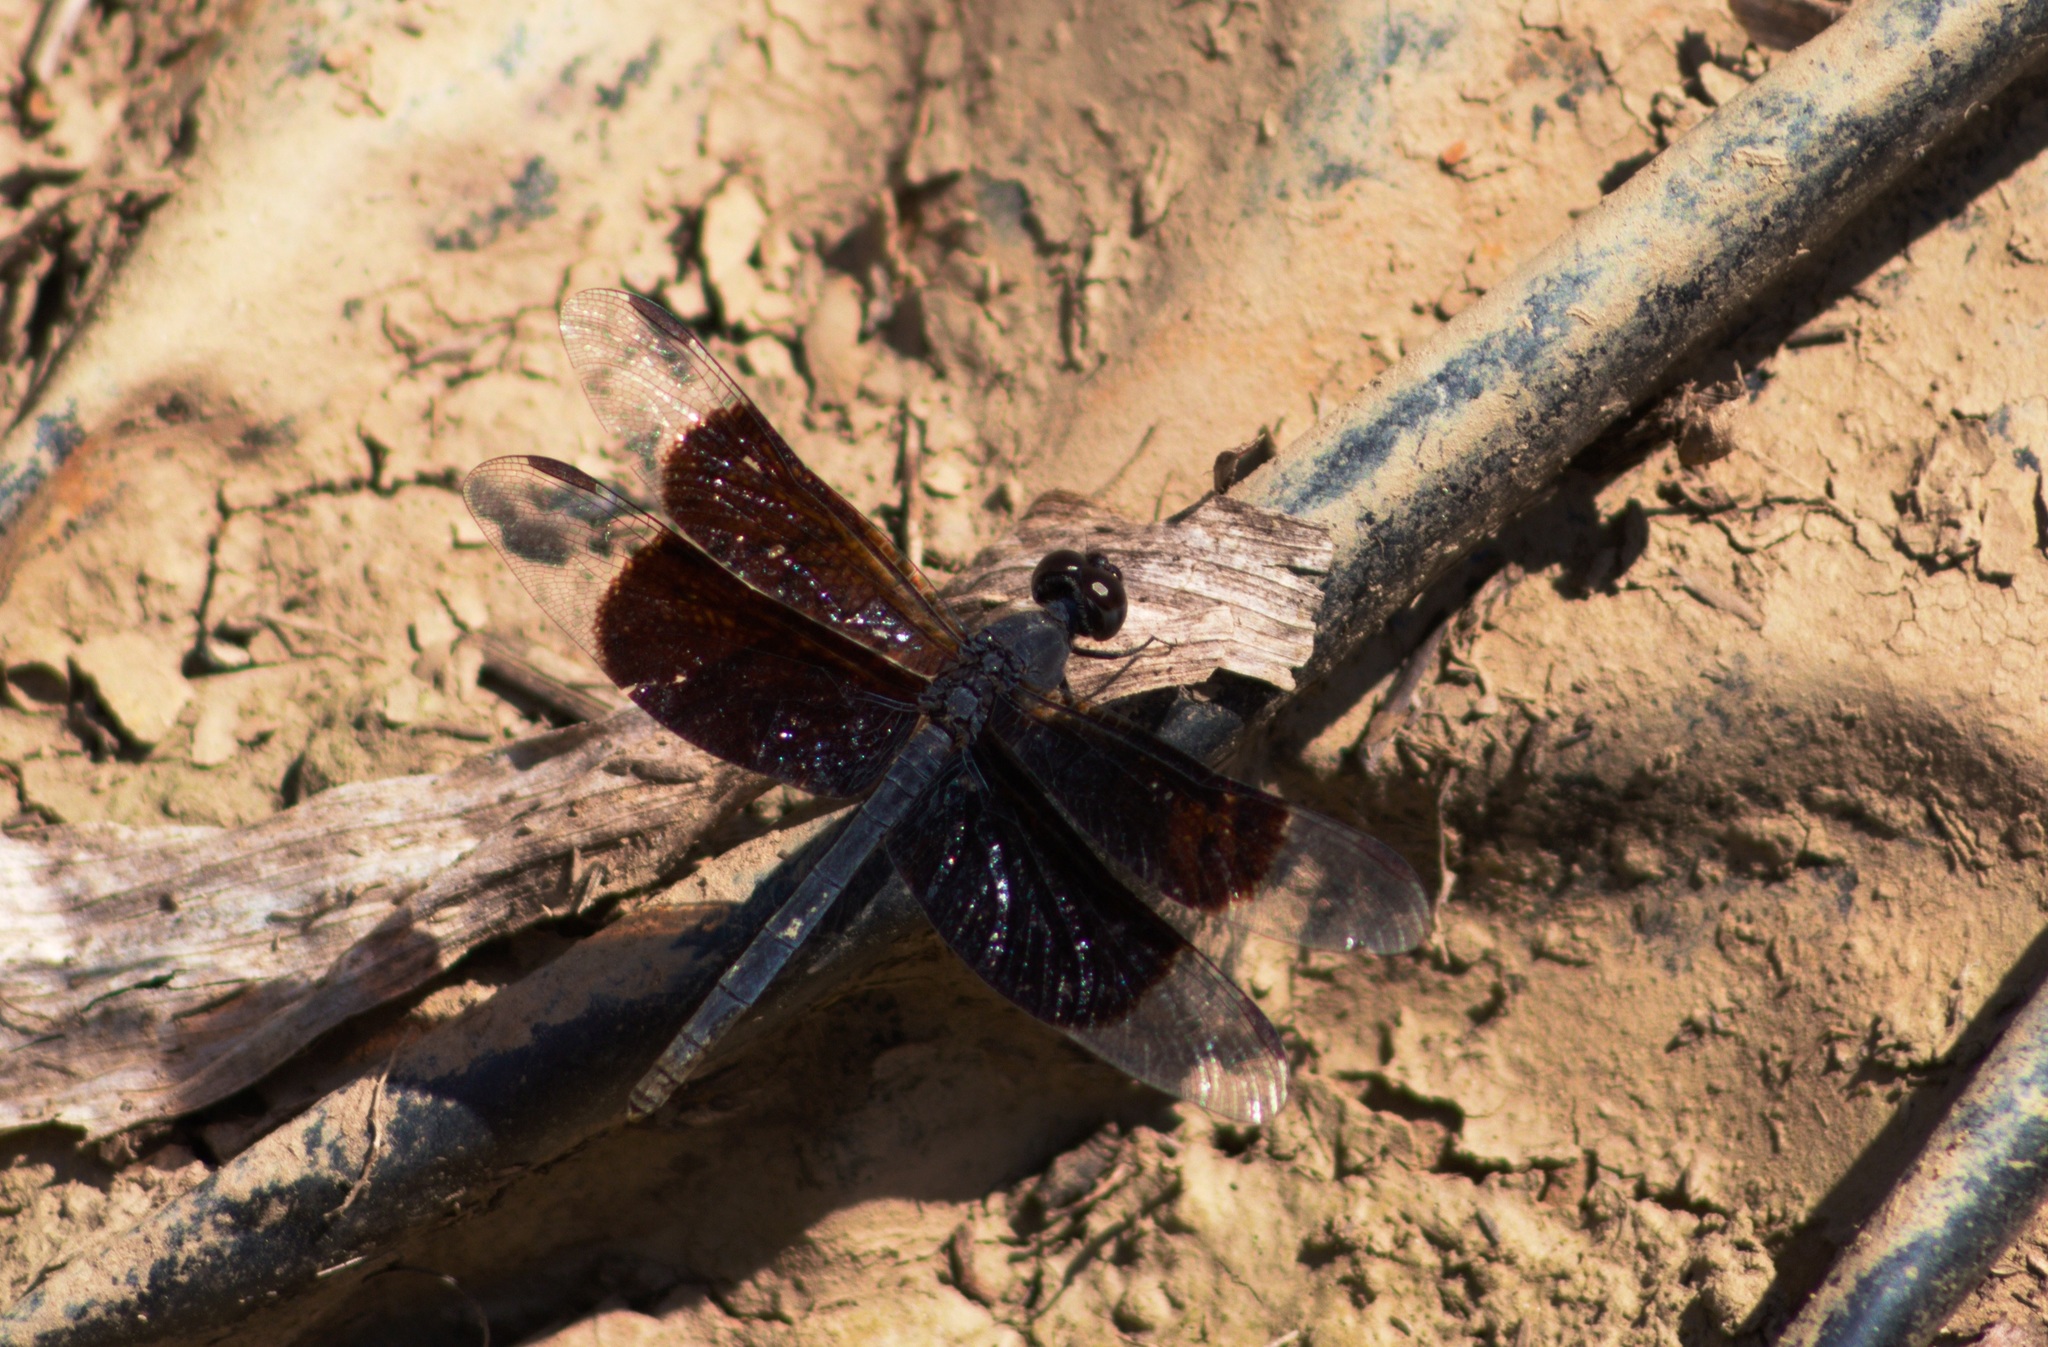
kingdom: Animalia
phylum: Arthropoda
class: Insecta
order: Odonata
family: Libellulidae
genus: Erythrodiplax
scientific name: Erythrodiplax funerea
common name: Black-winged dragonlet
